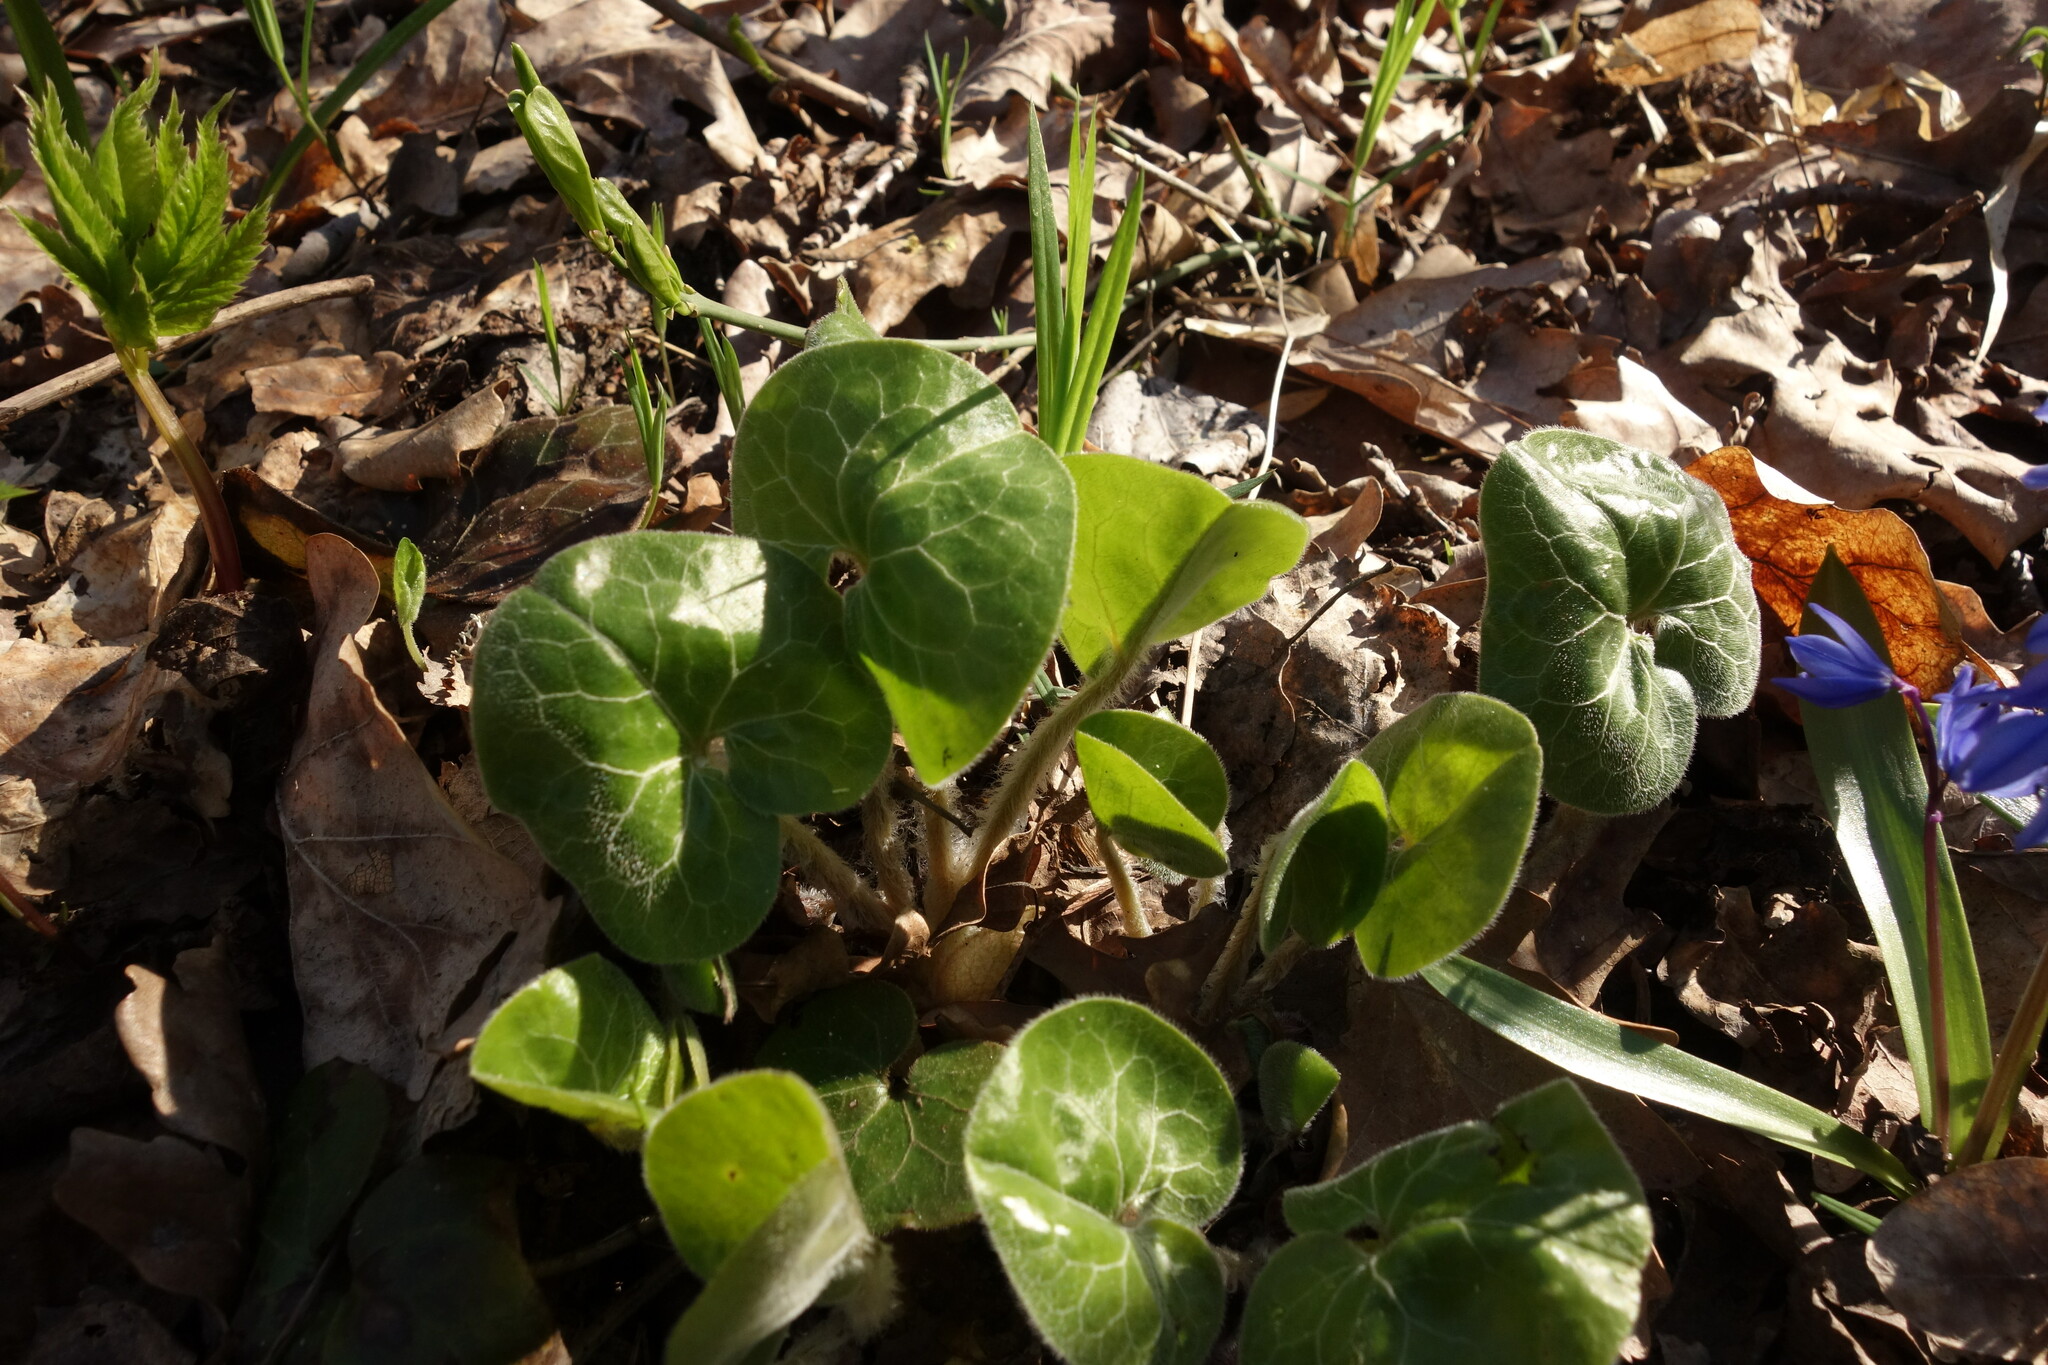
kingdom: Plantae
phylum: Tracheophyta
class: Magnoliopsida
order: Piperales
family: Aristolochiaceae
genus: Asarum
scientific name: Asarum europaeum
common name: Asarabacca
